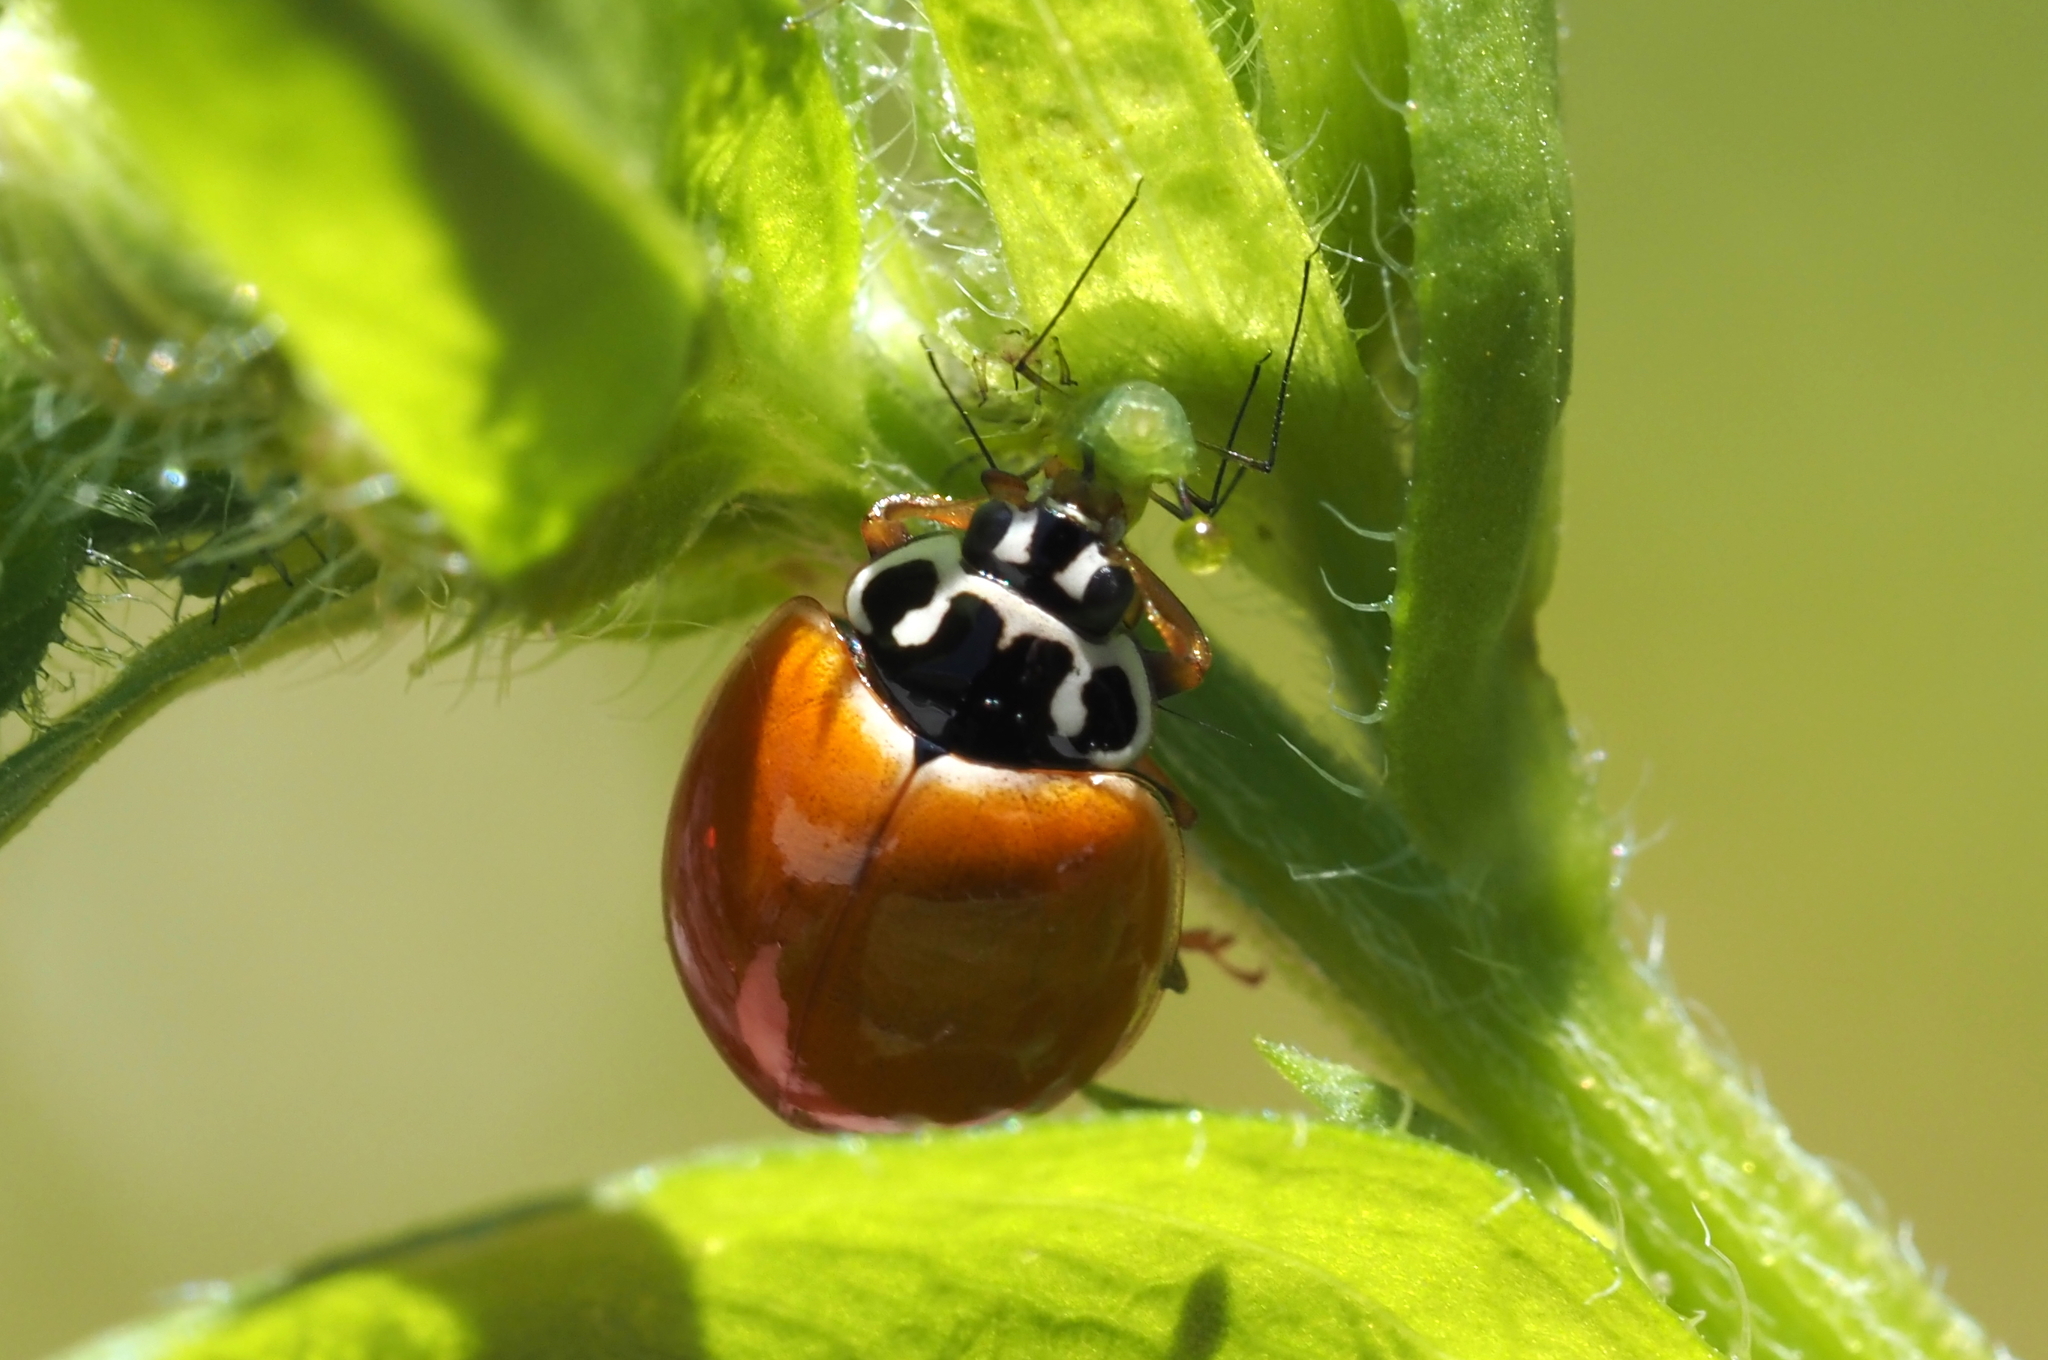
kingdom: Animalia
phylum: Arthropoda
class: Insecta
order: Coleoptera
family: Coccinellidae
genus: Cycloneda
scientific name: Cycloneda munda
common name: Polished lady beetle
